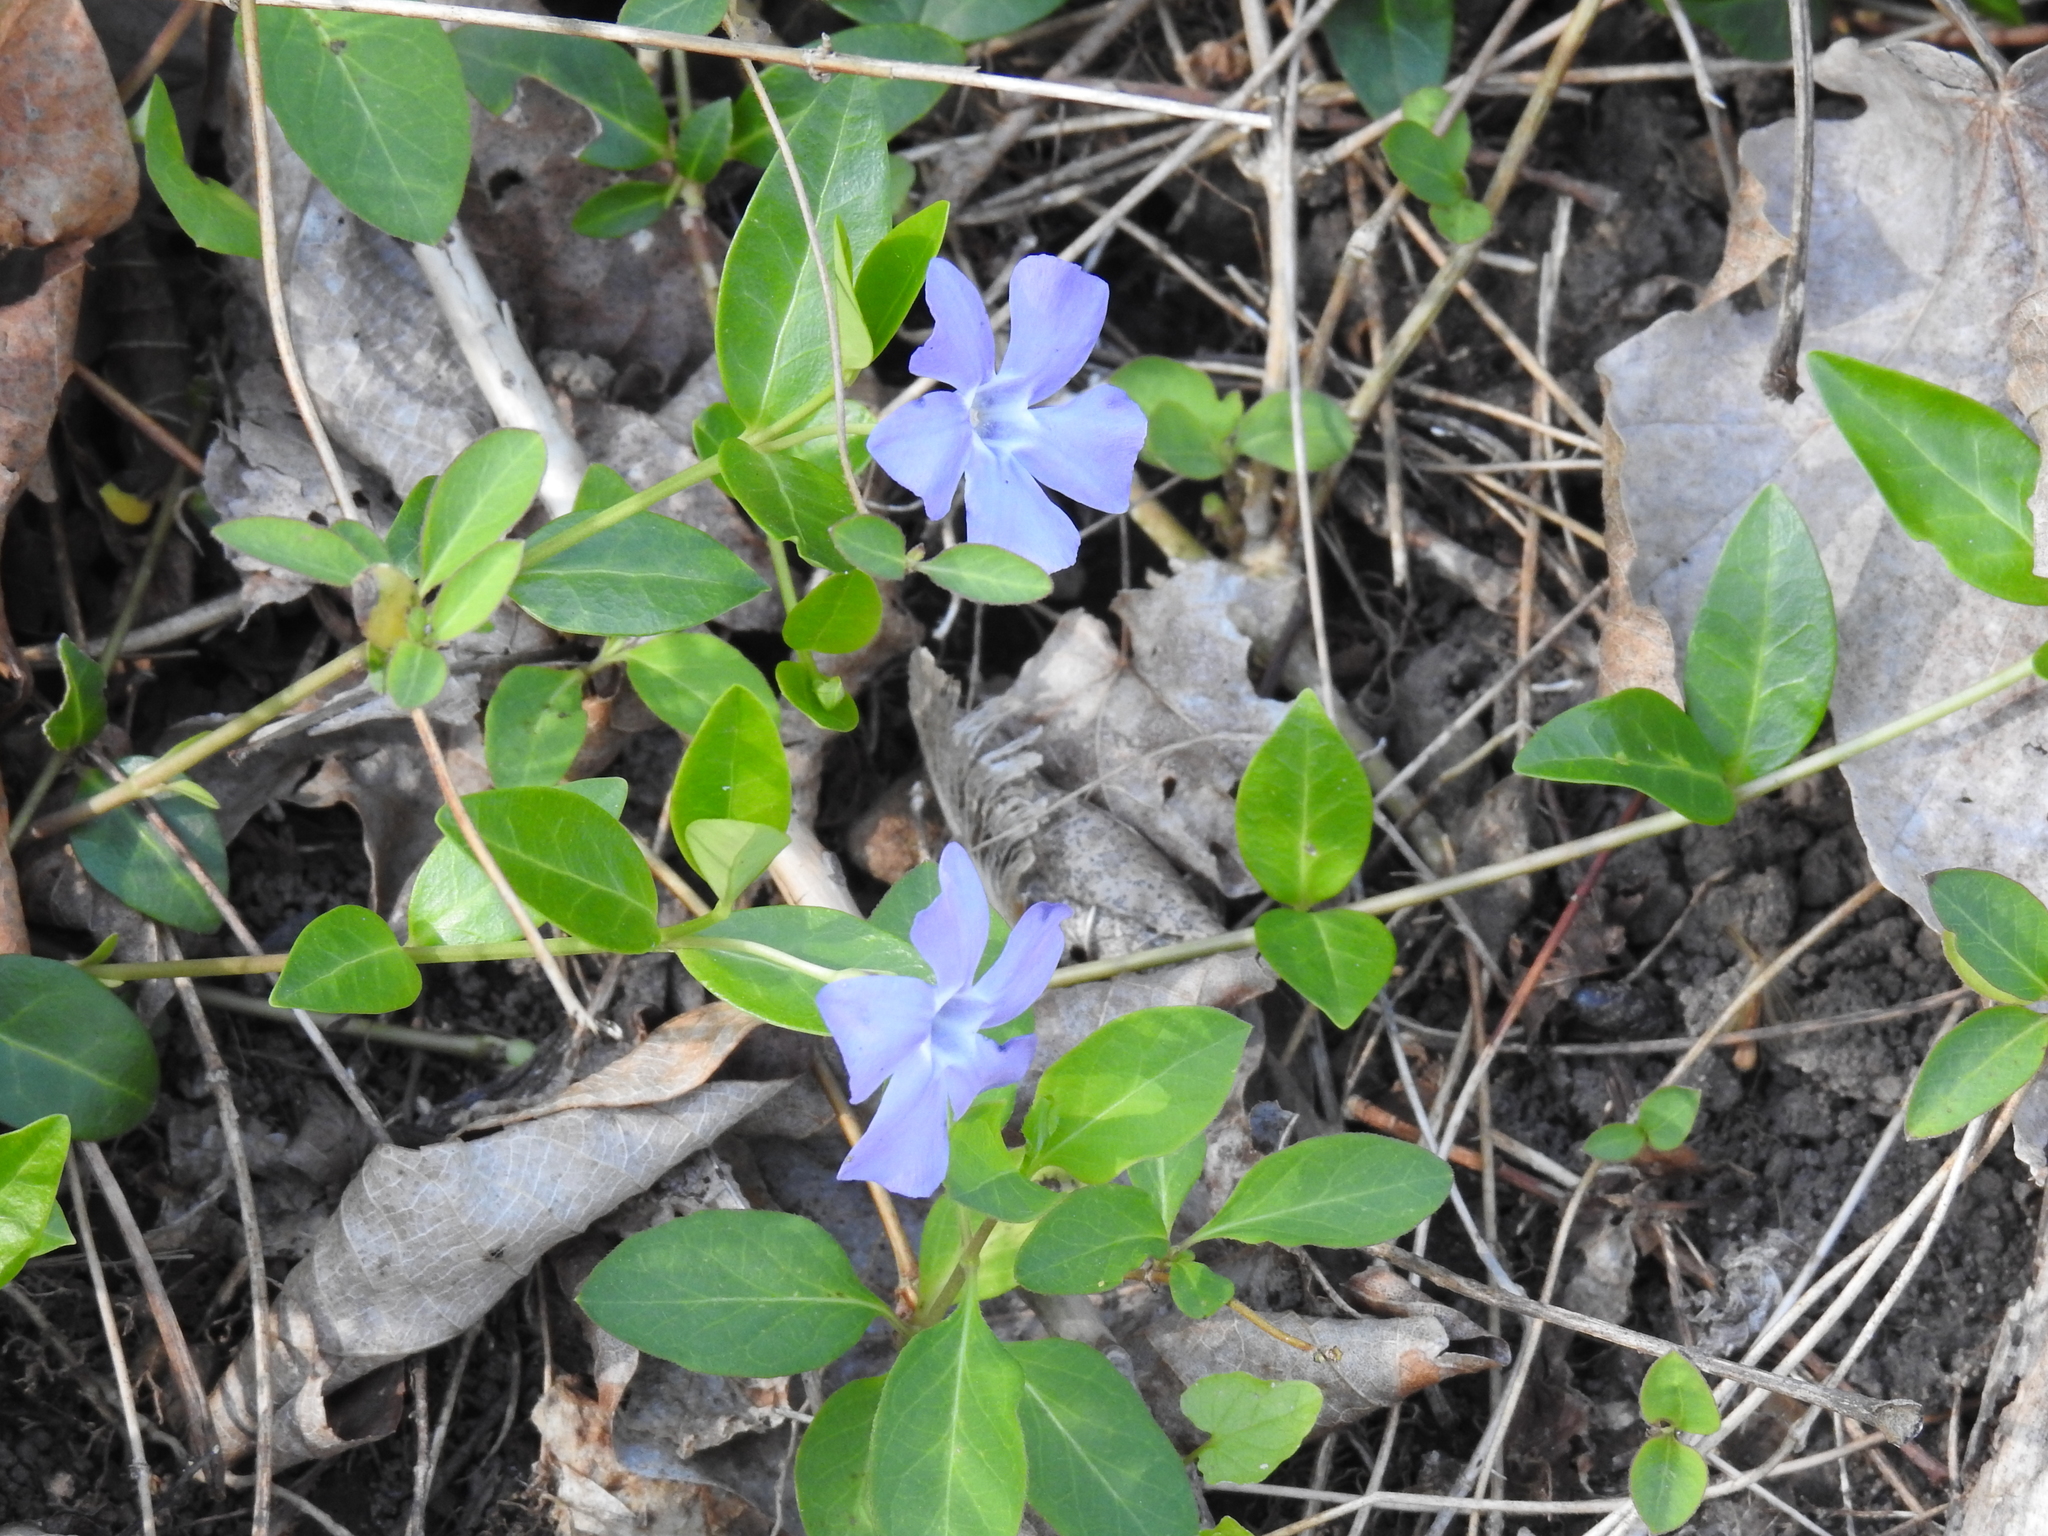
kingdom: Plantae
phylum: Tracheophyta
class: Magnoliopsida
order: Gentianales
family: Apocynaceae
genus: Vinca
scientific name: Vinca minor
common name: Lesser periwinkle
